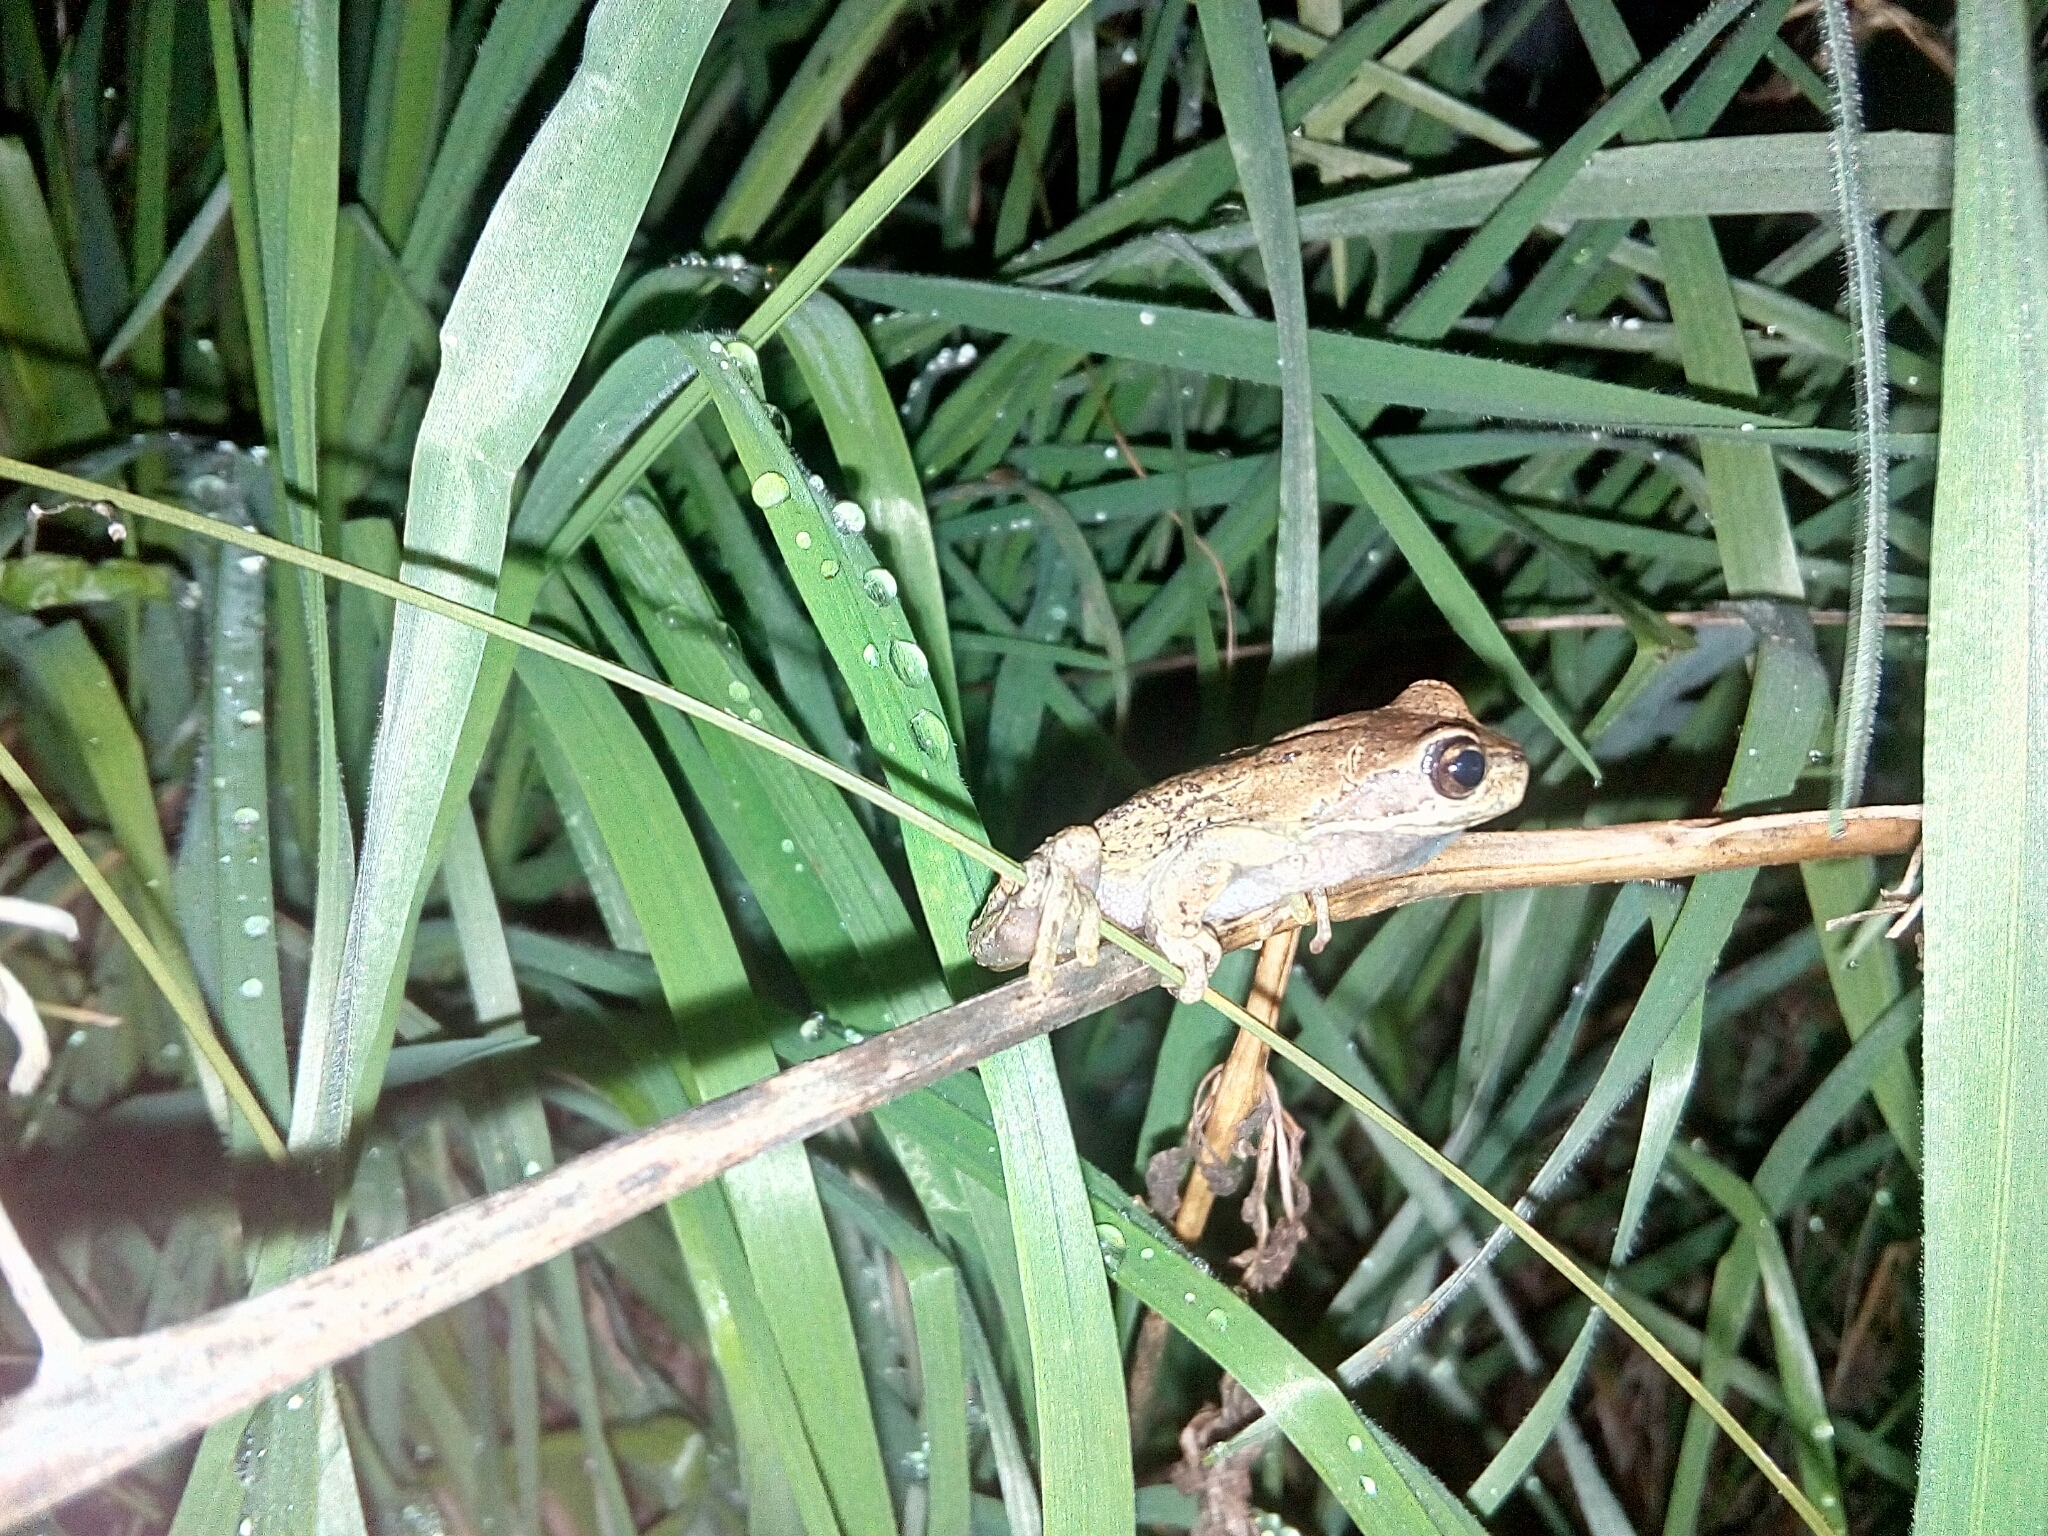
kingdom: Animalia
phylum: Chordata
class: Amphibia
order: Anura
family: Pelodryadidae
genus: Litoria
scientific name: Litoria ewingii
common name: Southern brown tree frog
